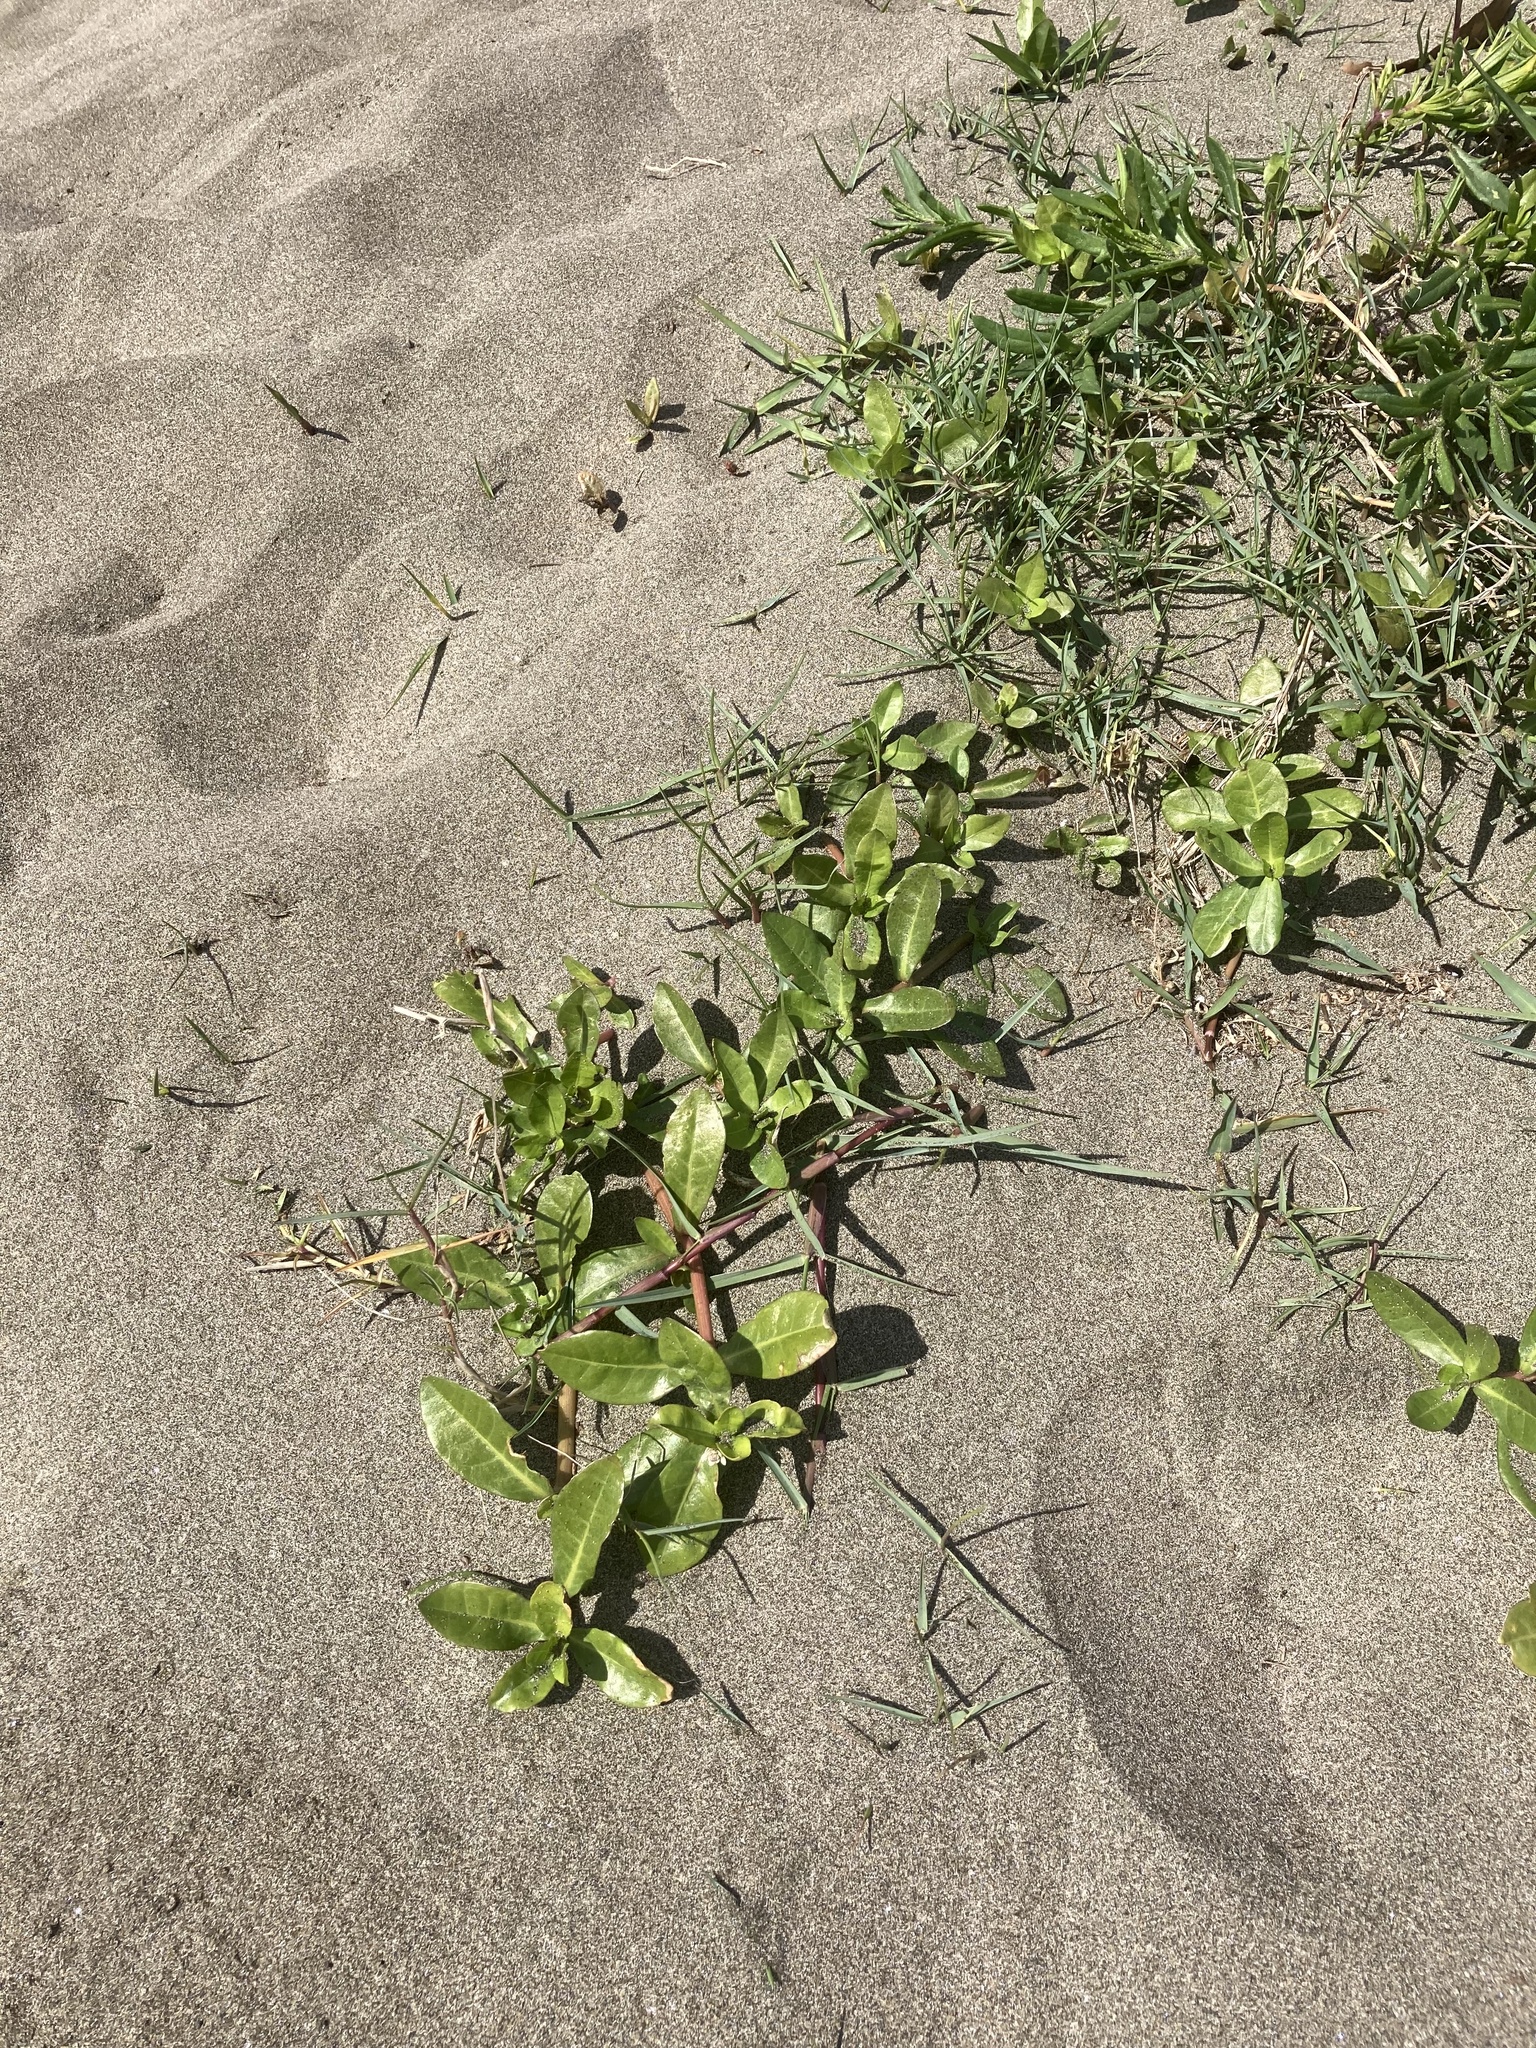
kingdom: Plantae
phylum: Tracheophyta
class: Magnoliopsida
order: Caryophyllales
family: Amaranthaceae
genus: Alternanthera
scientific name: Alternanthera philoxeroides
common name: Alligatorweed
